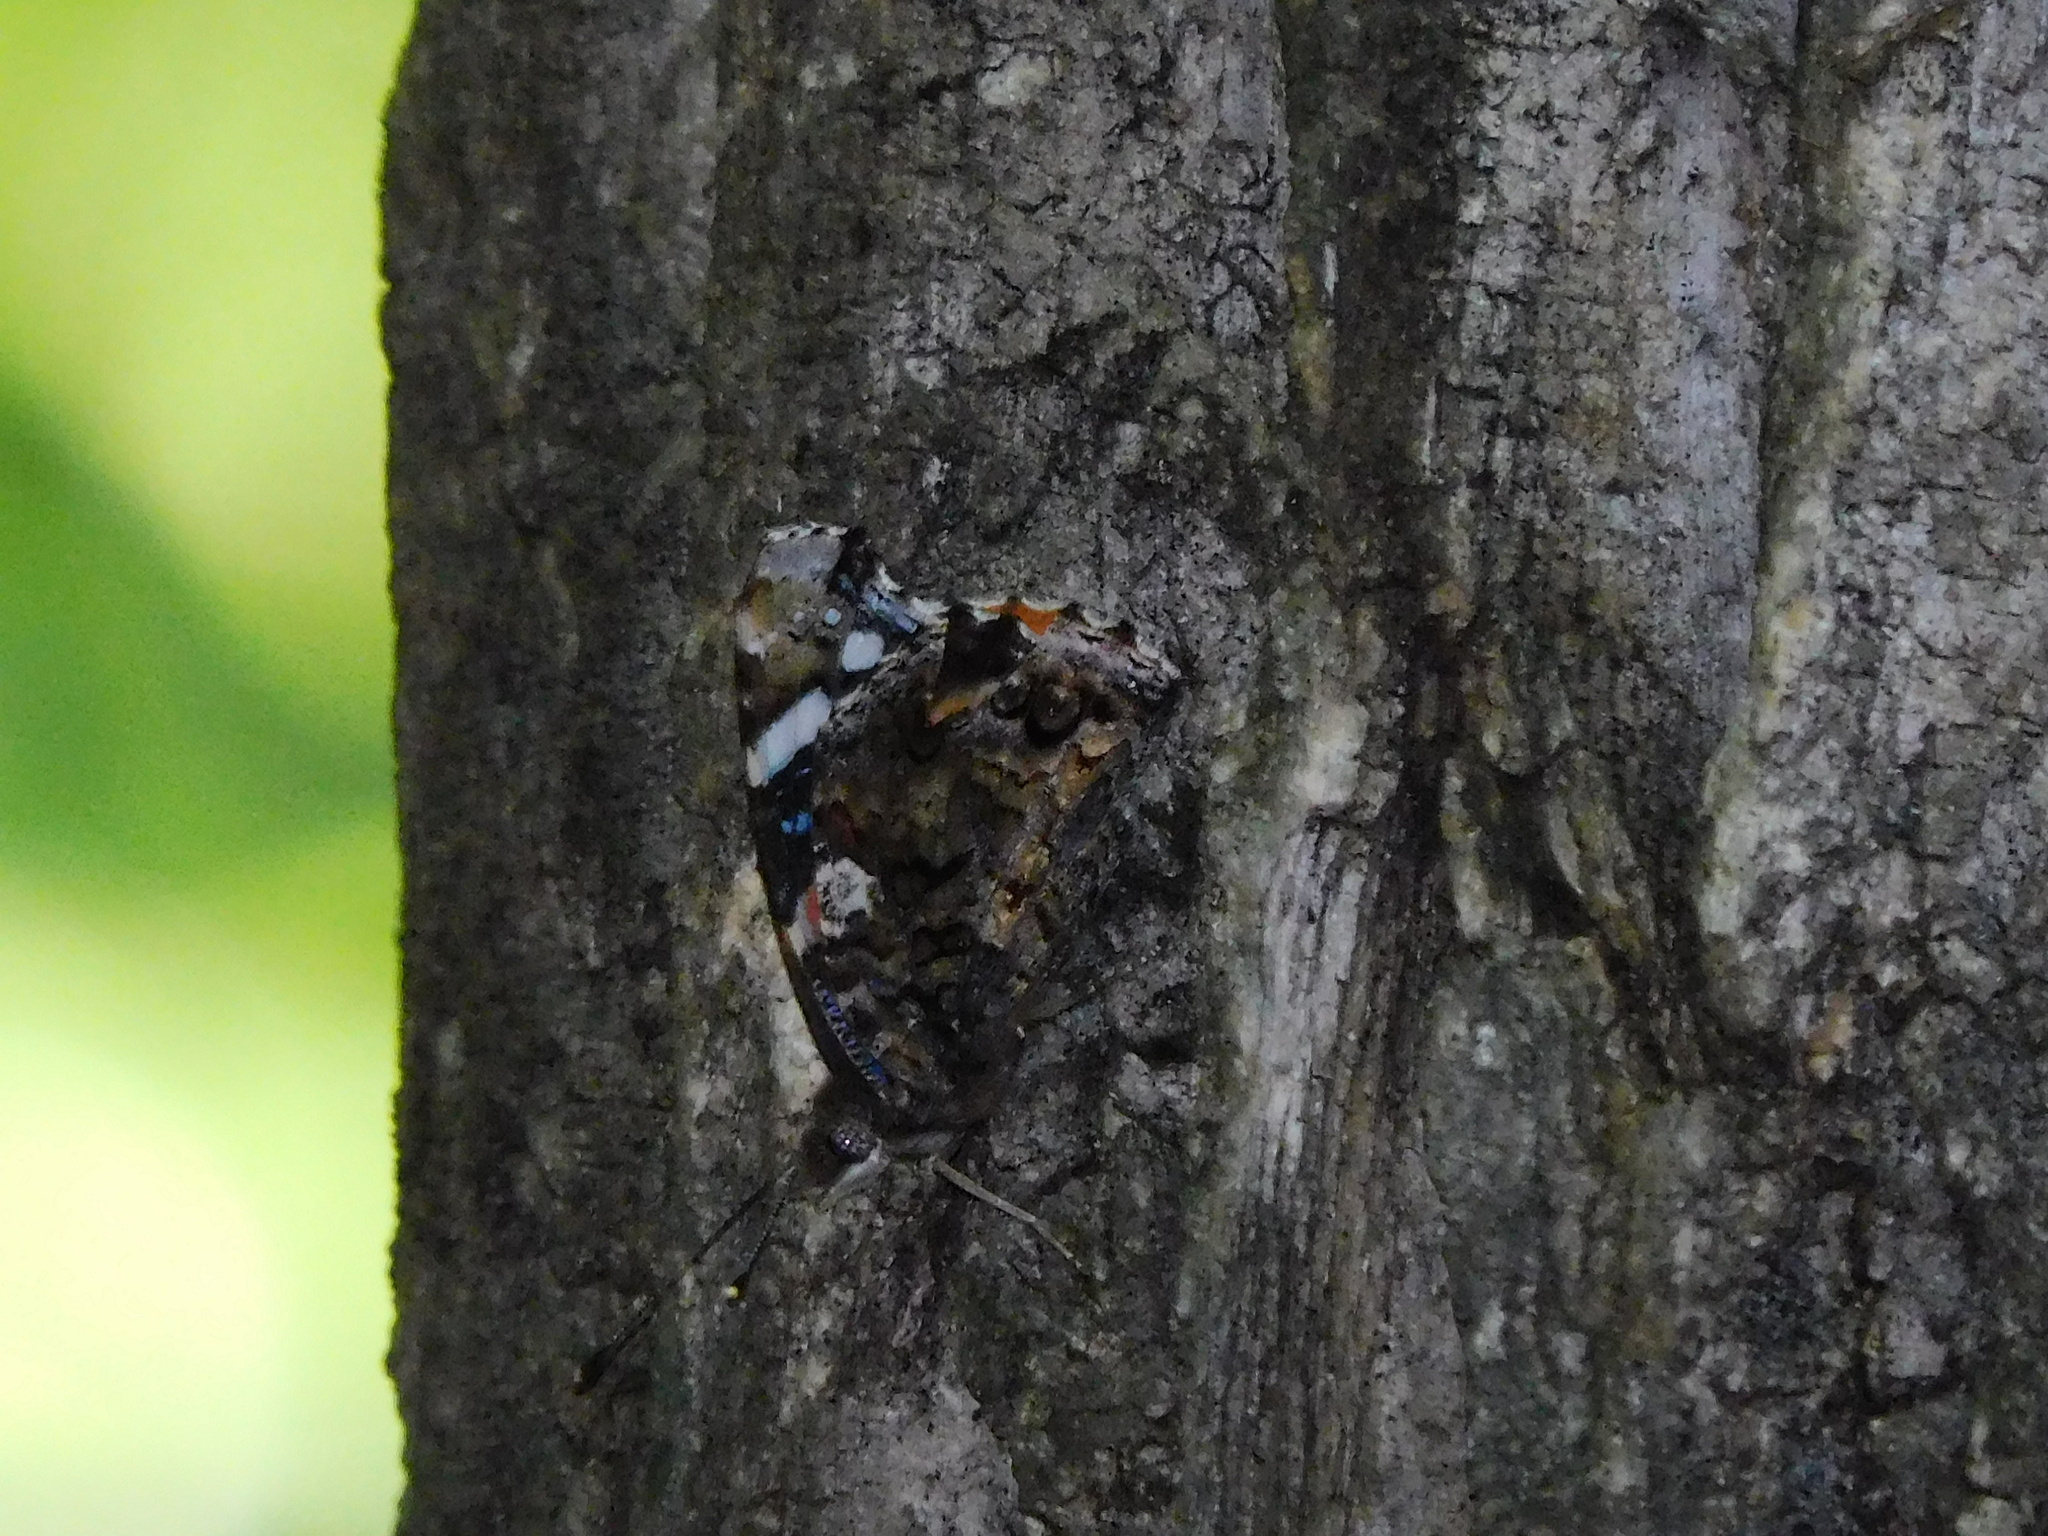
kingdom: Animalia
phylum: Arthropoda
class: Insecta
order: Lepidoptera
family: Nymphalidae
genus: Vanessa
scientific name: Vanessa atalanta
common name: Red admiral
